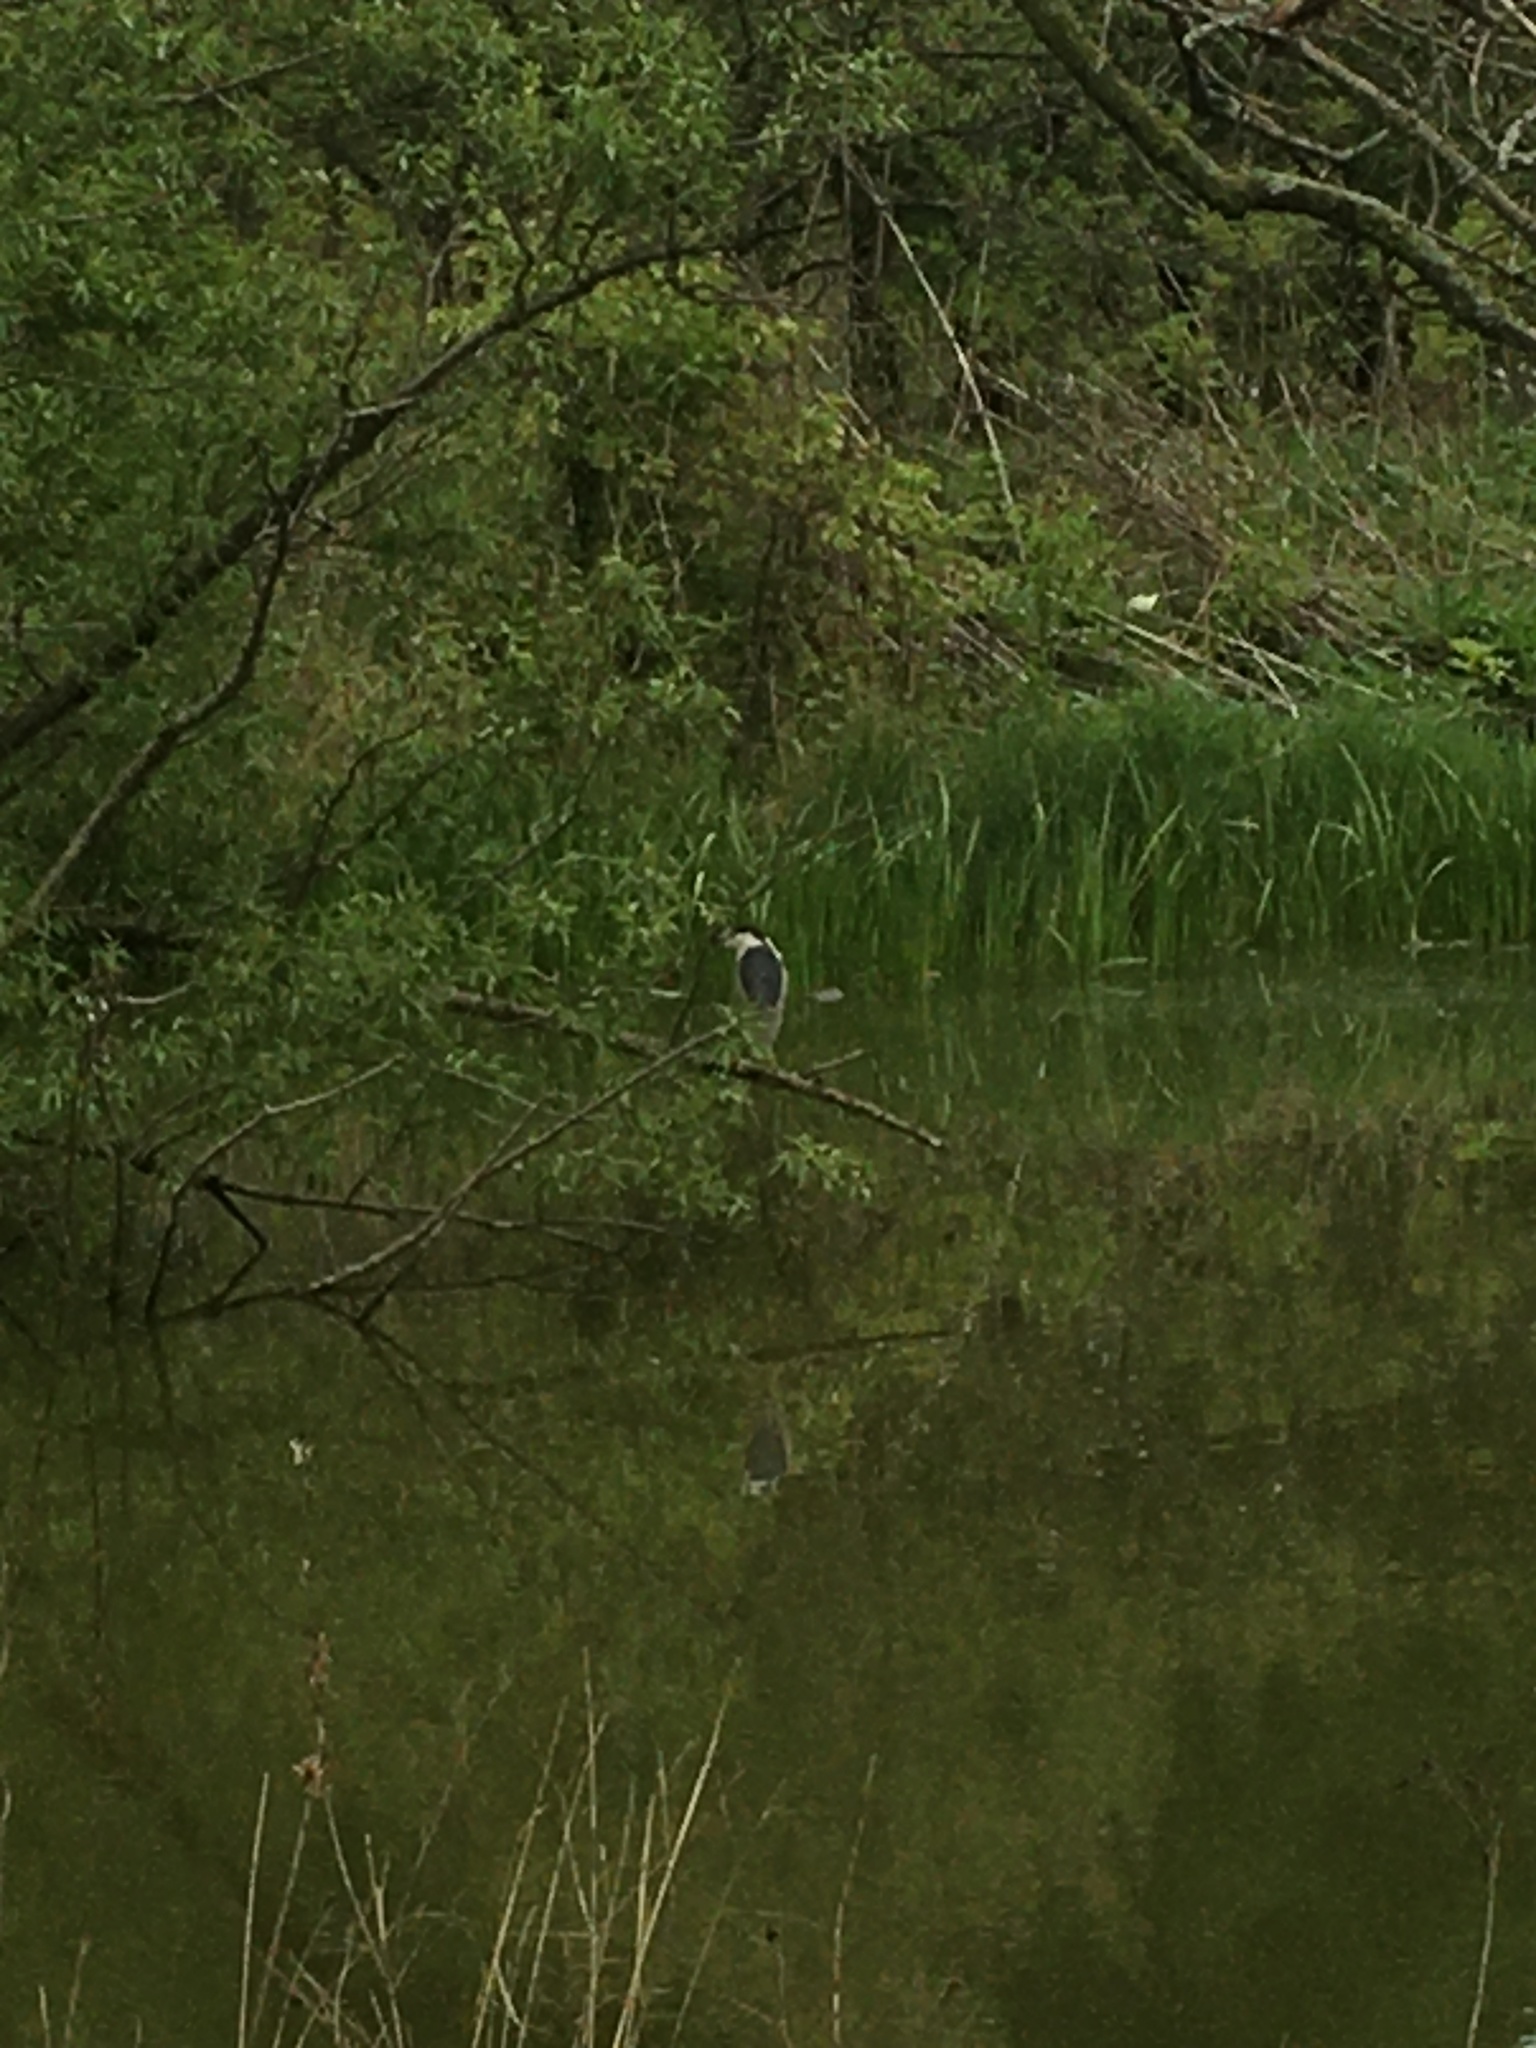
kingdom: Animalia
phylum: Chordata
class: Aves
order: Pelecaniformes
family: Ardeidae
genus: Nycticorax
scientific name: Nycticorax nycticorax
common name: Black-crowned night heron
